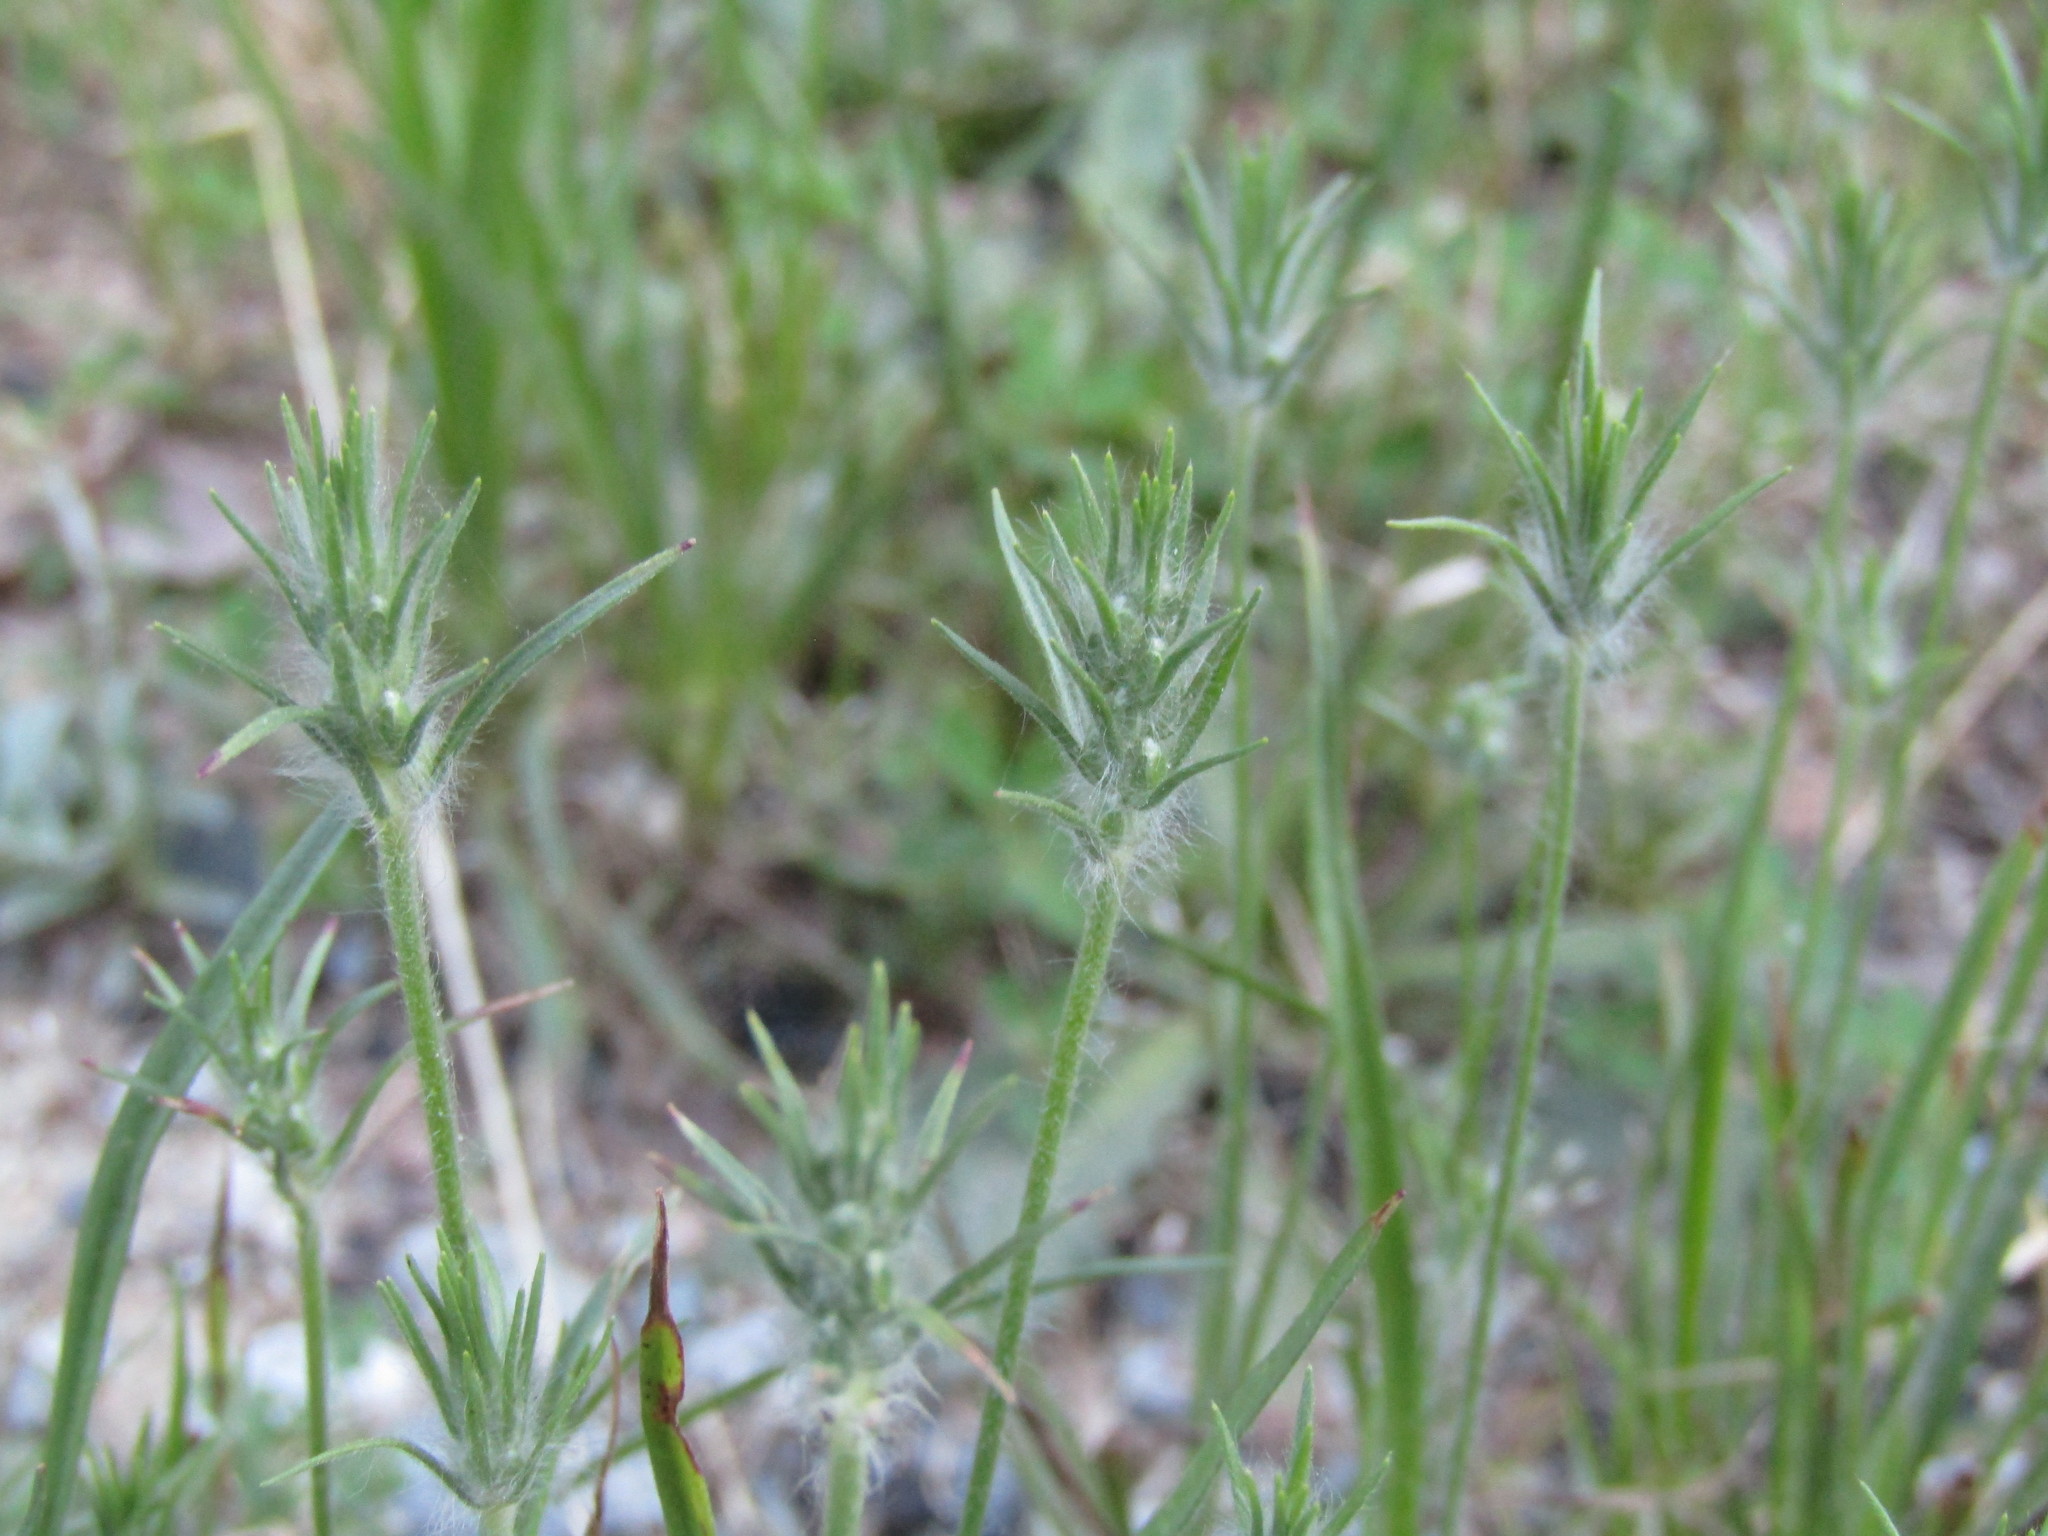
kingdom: Plantae
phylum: Tracheophyta
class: Magnoliopsida
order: Lamiales
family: Plantaginaceae
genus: Plantago
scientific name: Plantago aristata
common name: Bracted plantain
